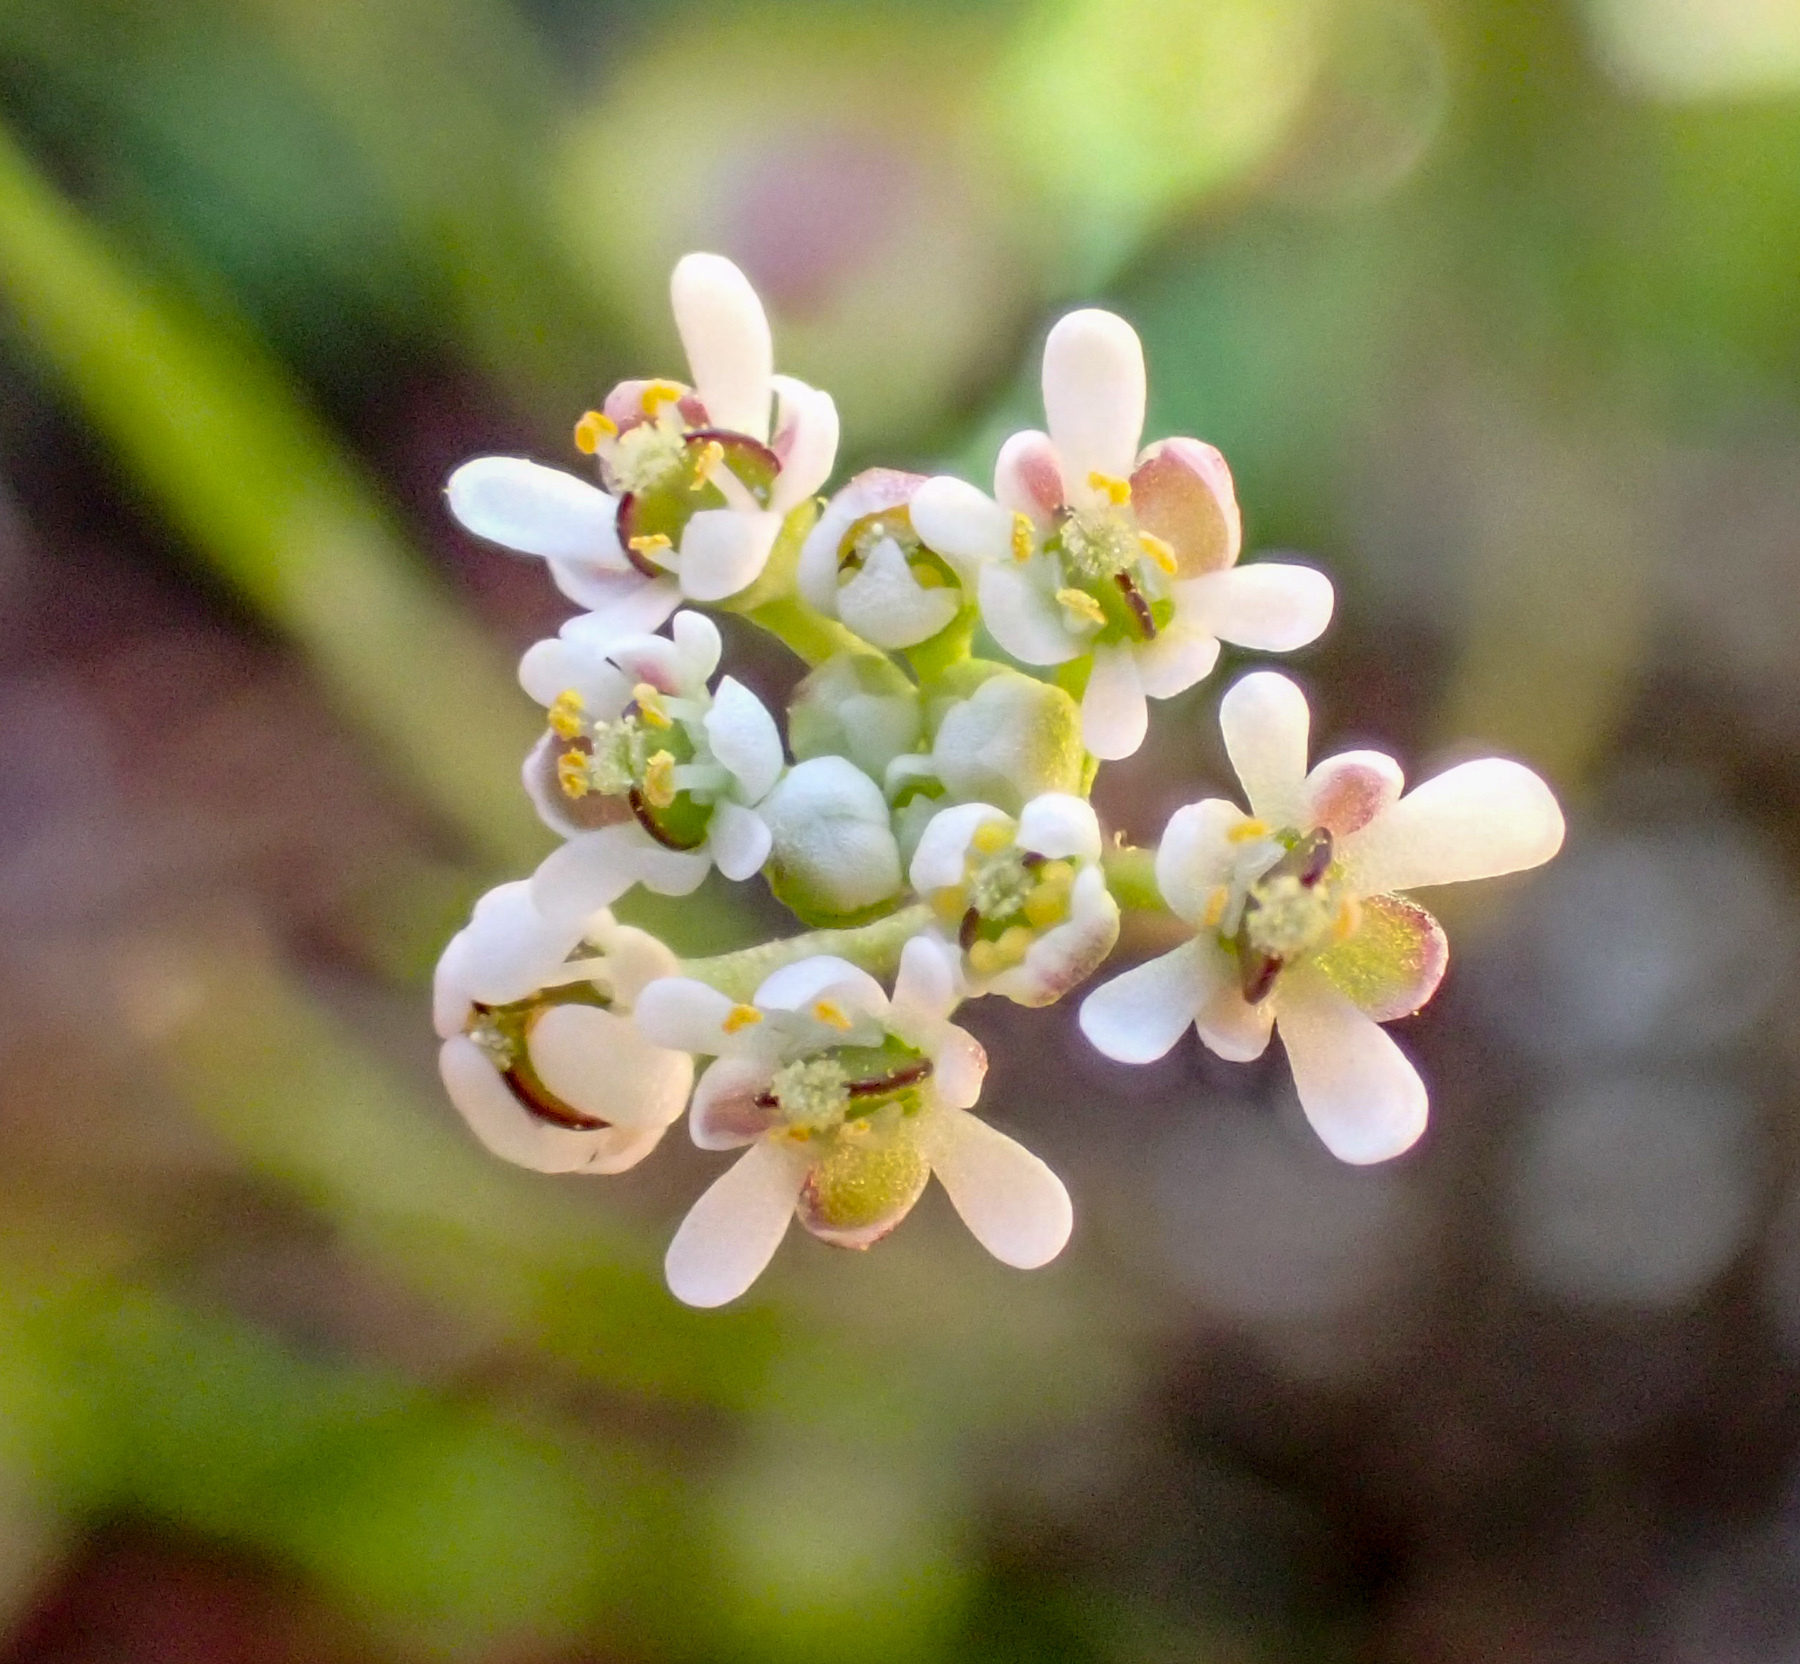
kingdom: Plantae
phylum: Tracheophyta
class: Magnoliopsida
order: Brassicales
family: Brassicaceae
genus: Lepidium
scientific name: Lepidium nitidum
